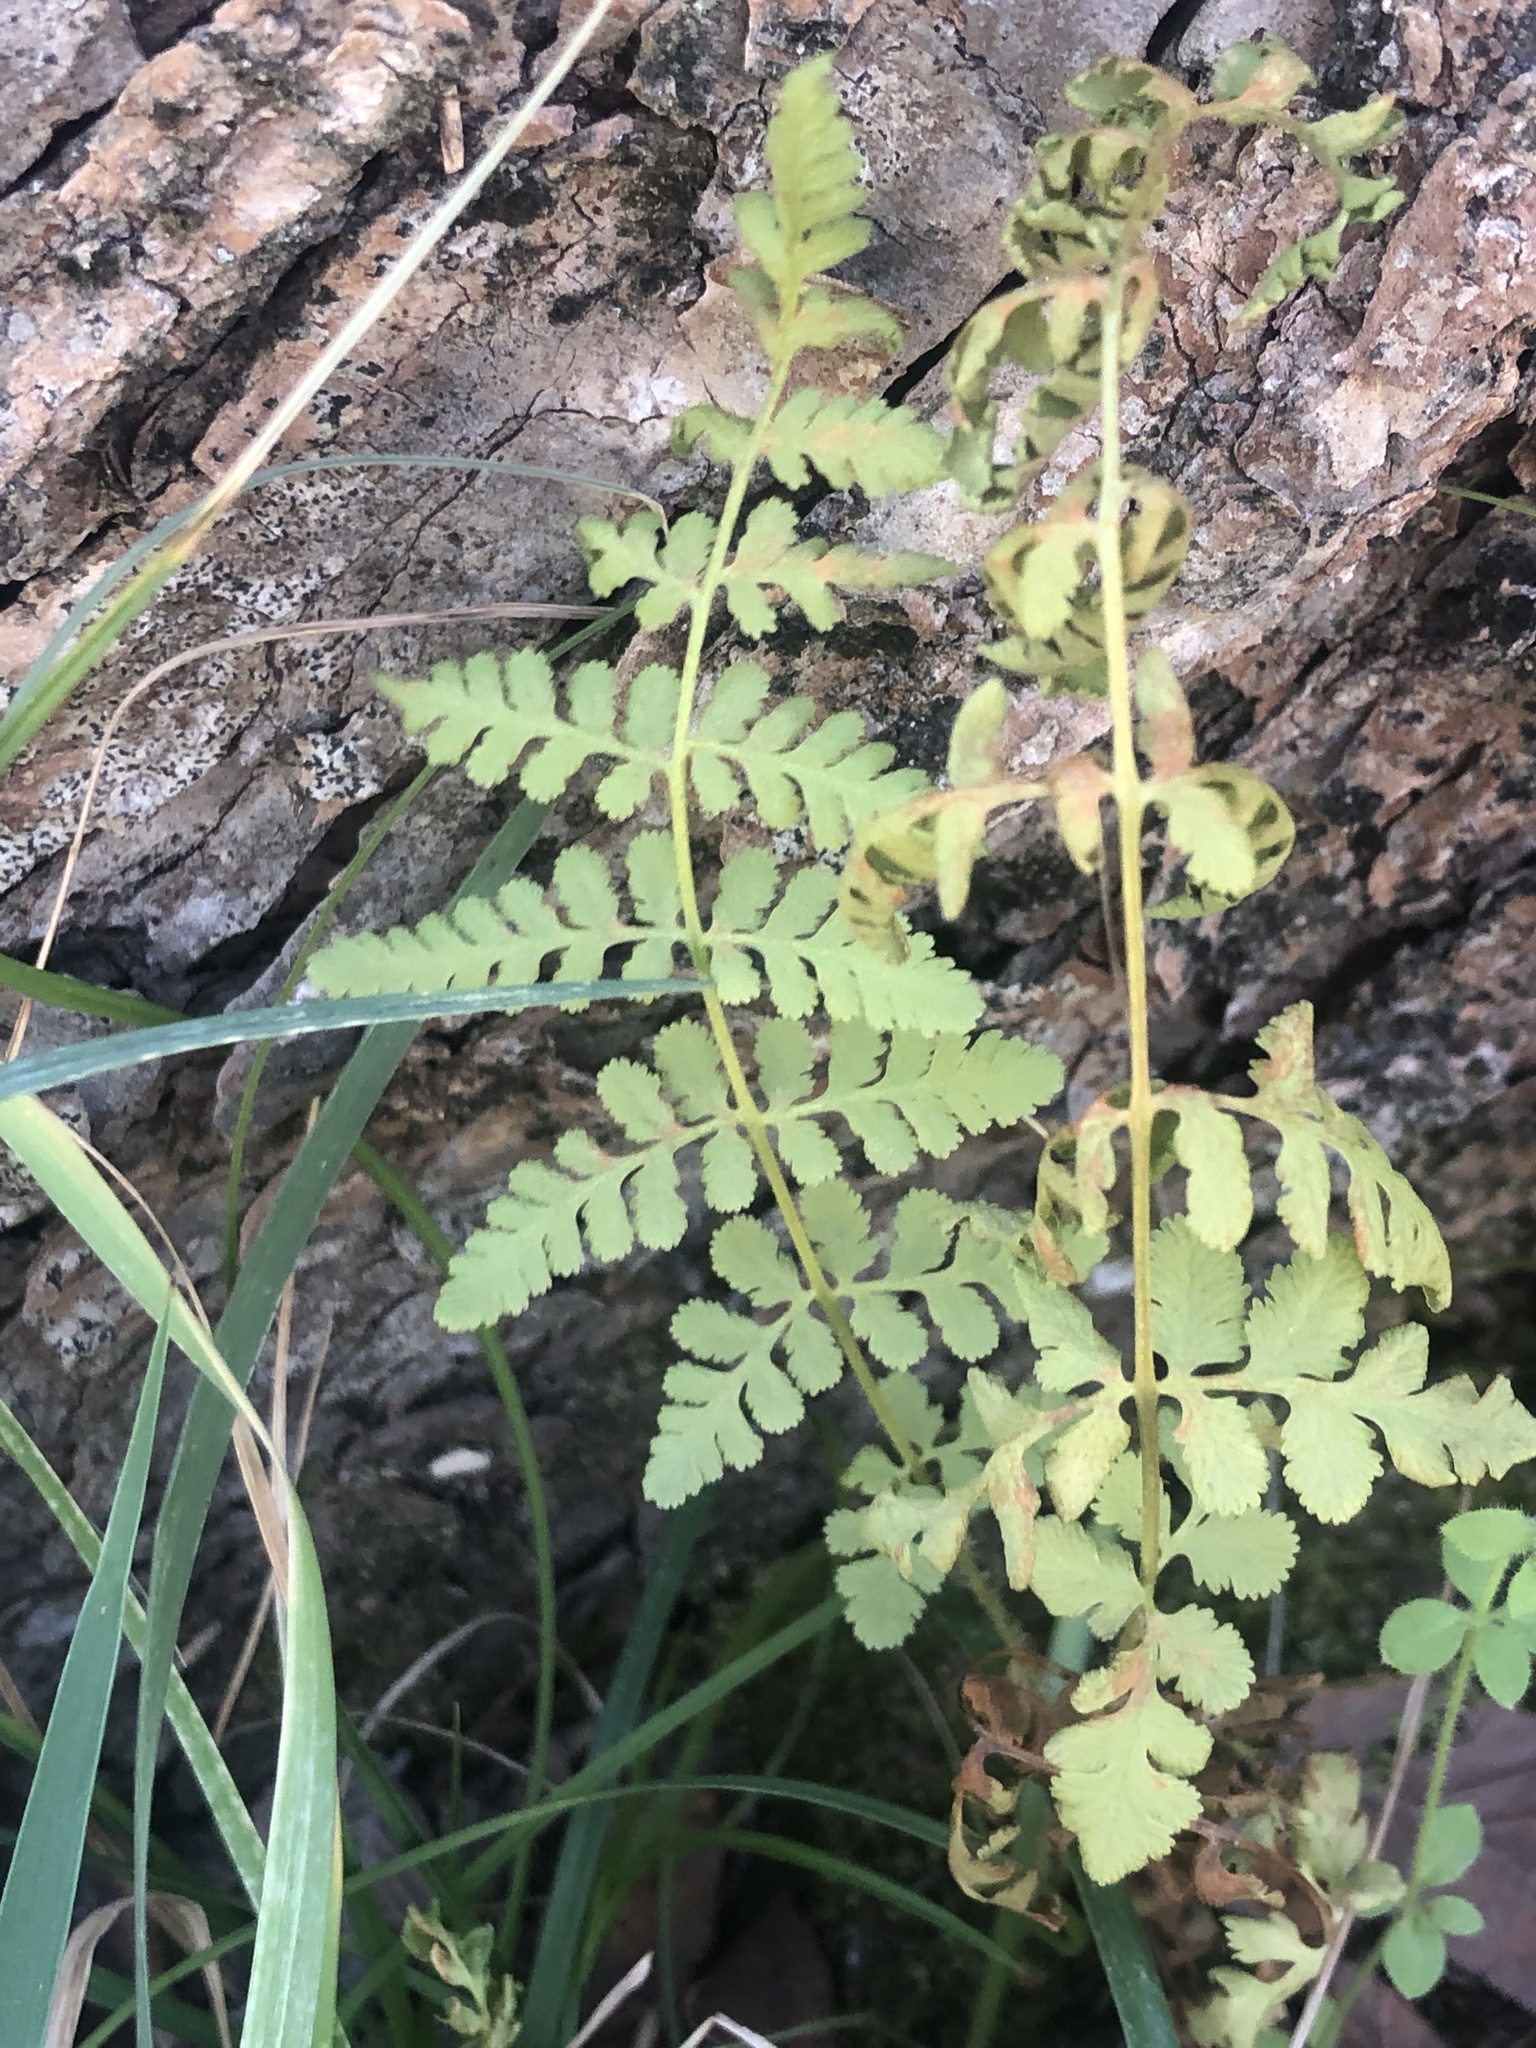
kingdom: Plantae
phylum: Tracheophyta
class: Polypodiopsida
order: Polypodiales
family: Woodsiaceae
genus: Physematium
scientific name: Physematium obtusum
